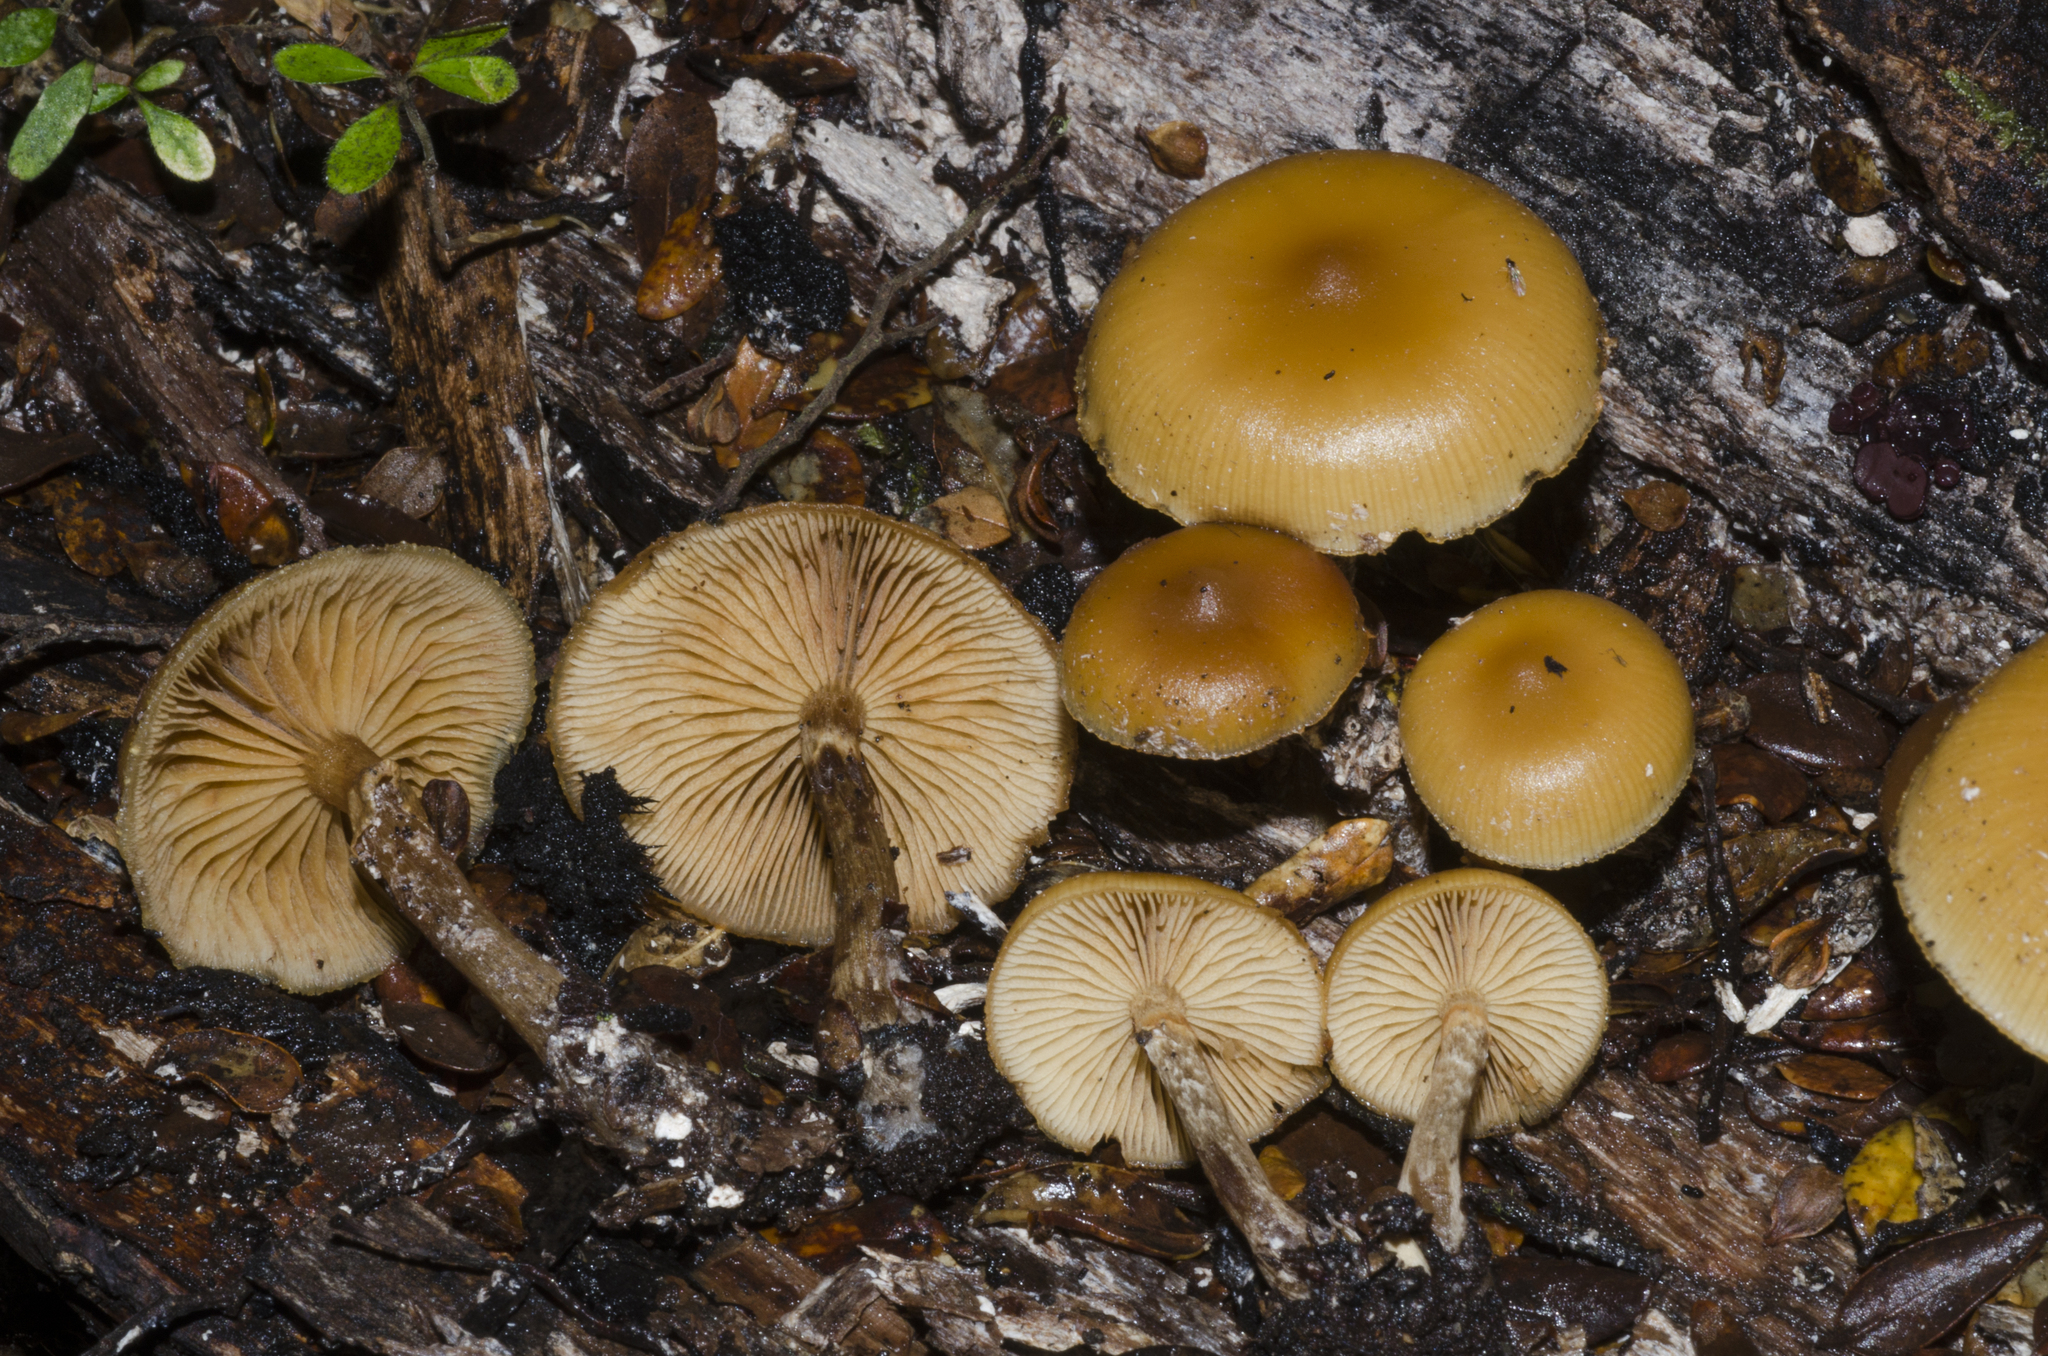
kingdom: Fungi
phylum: Basidiomycota
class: Agaricomycetes
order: Agaricales
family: Hymenogastraceae
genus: Galerina
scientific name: Galerina patagonica
